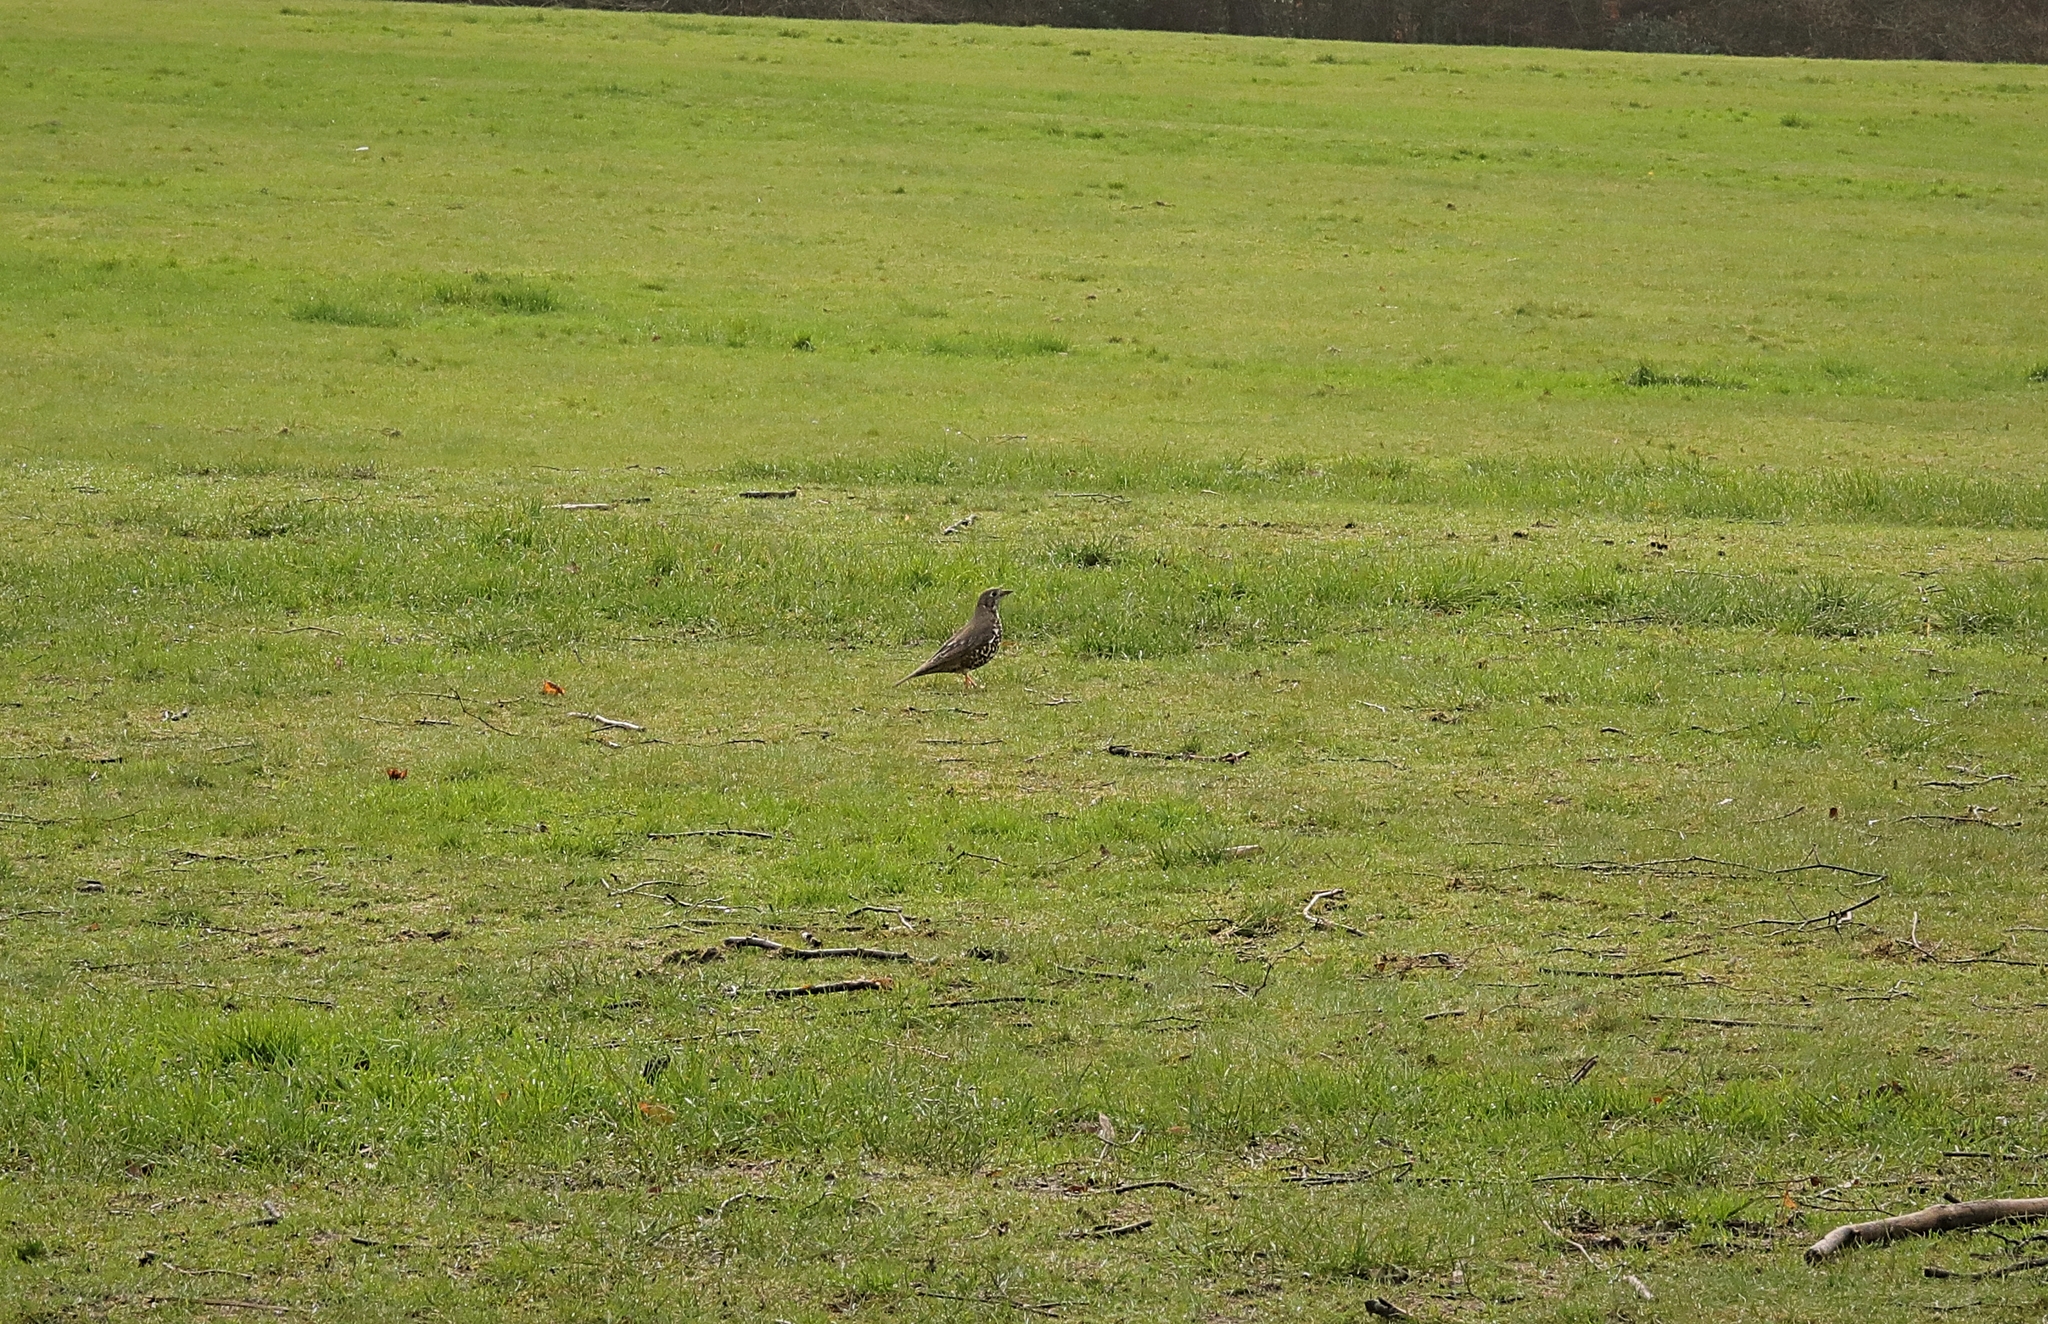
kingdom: Animalia
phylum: Chordata
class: Aves
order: Passeriformes
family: Turdidae
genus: Turdus
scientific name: Turdus viscivorus
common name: Mistle thrush
